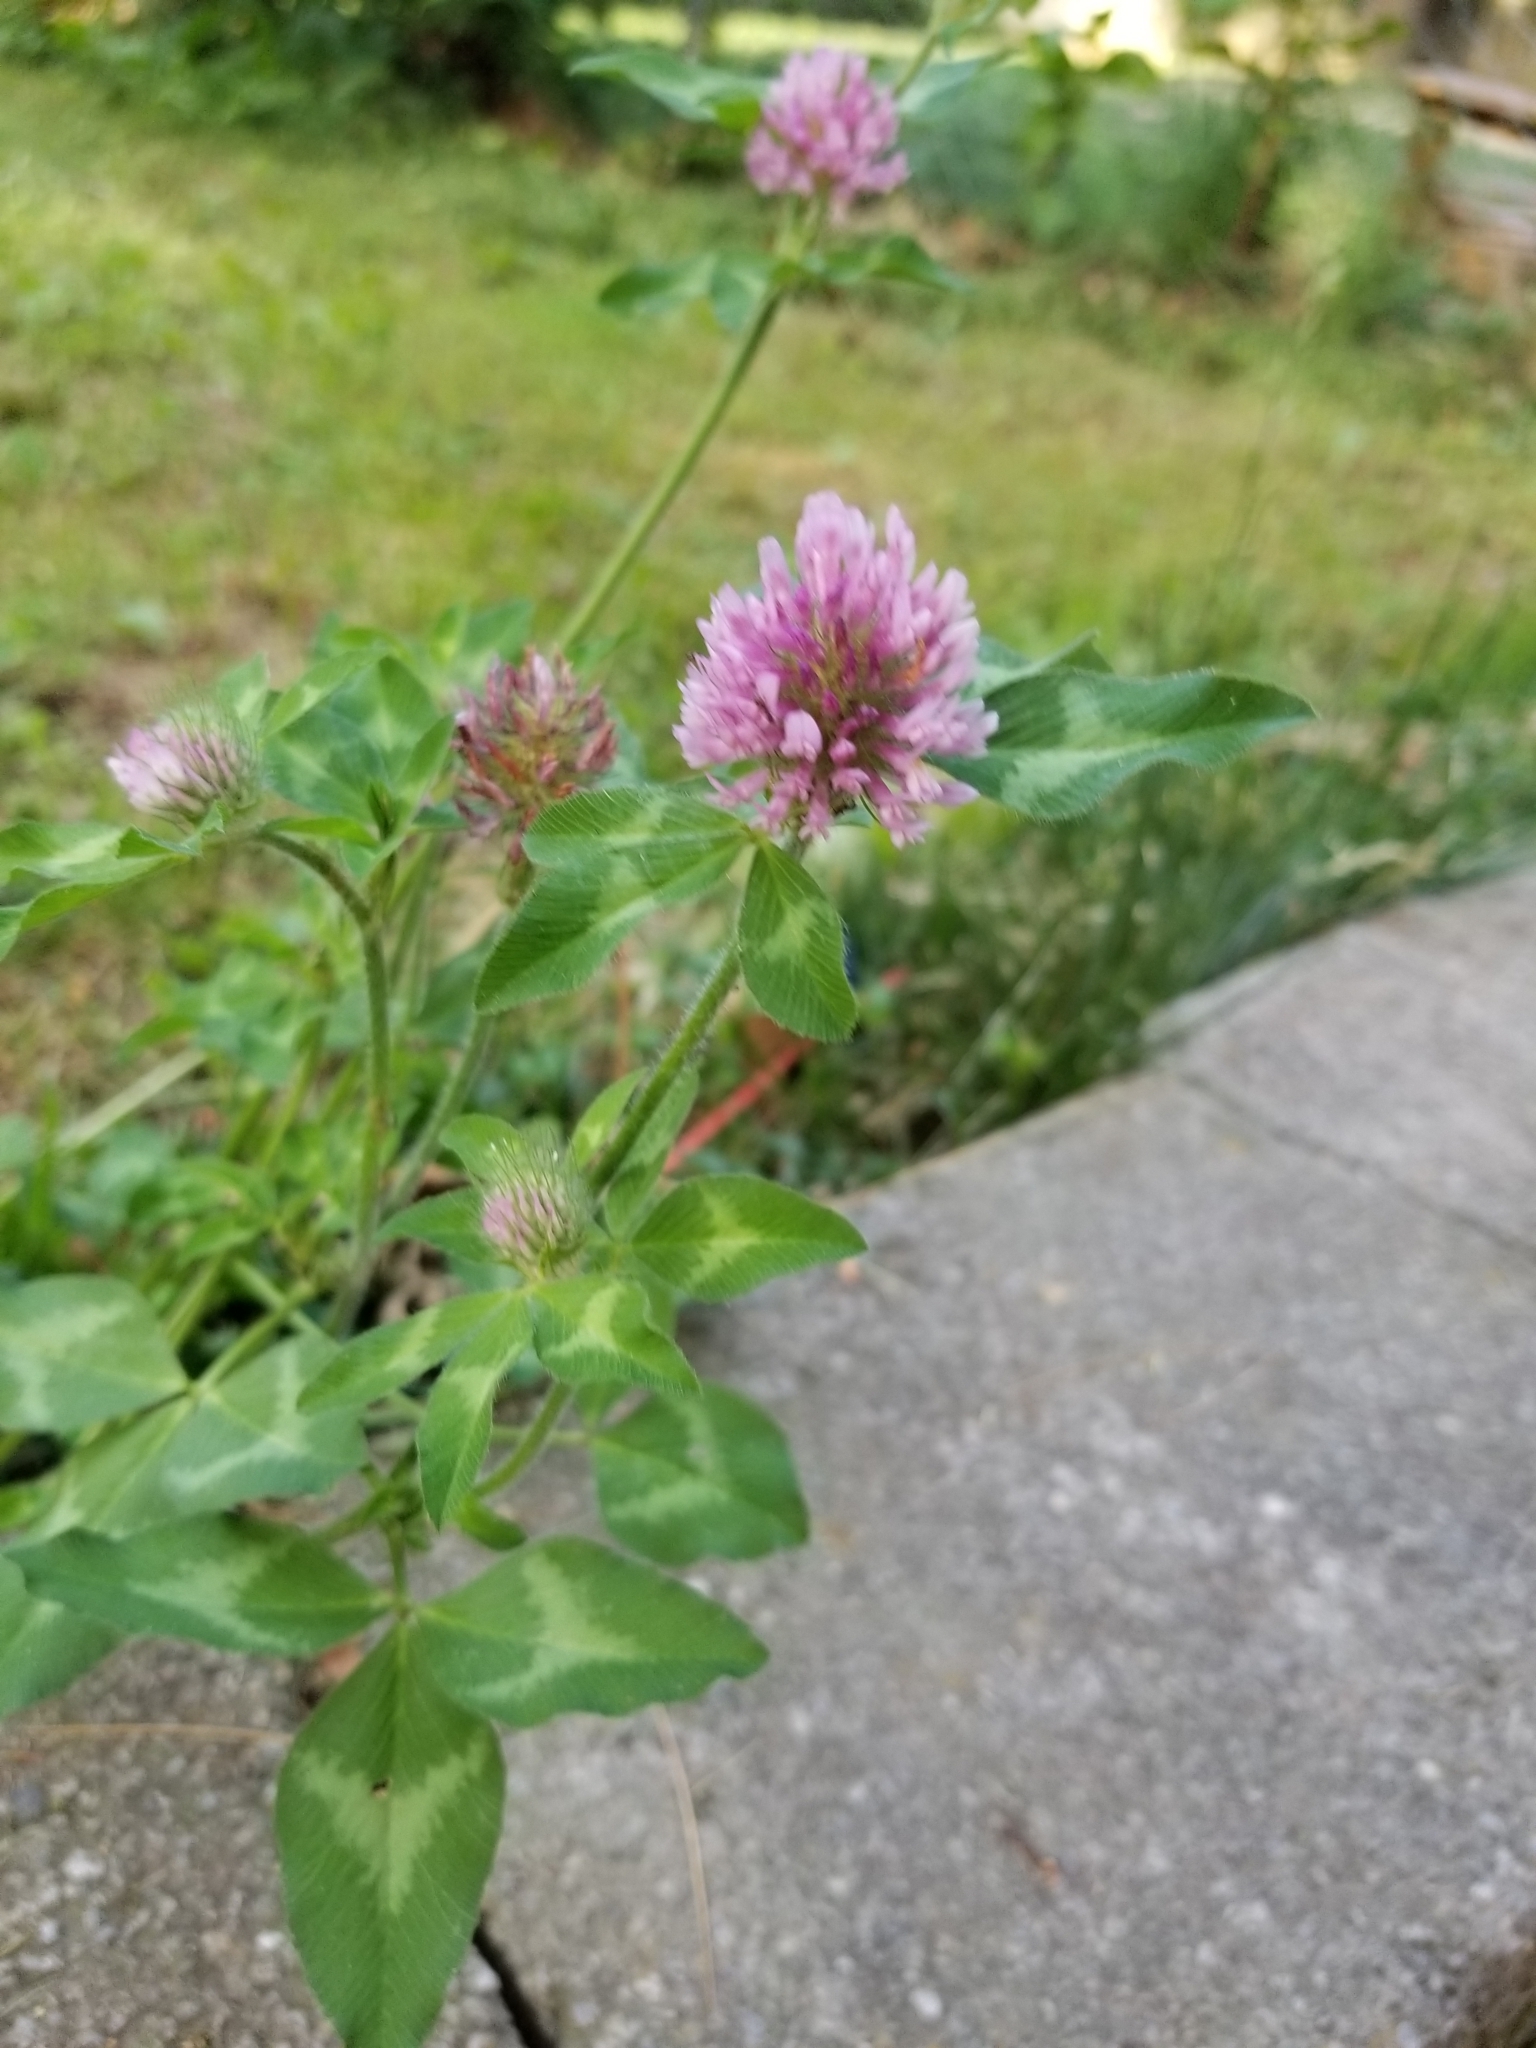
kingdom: Plantae
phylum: Tracheophyta
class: Magnoliopsida
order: Fabales
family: Fabaceae
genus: Trifolium
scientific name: Trifolium pratense
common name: Red clover
